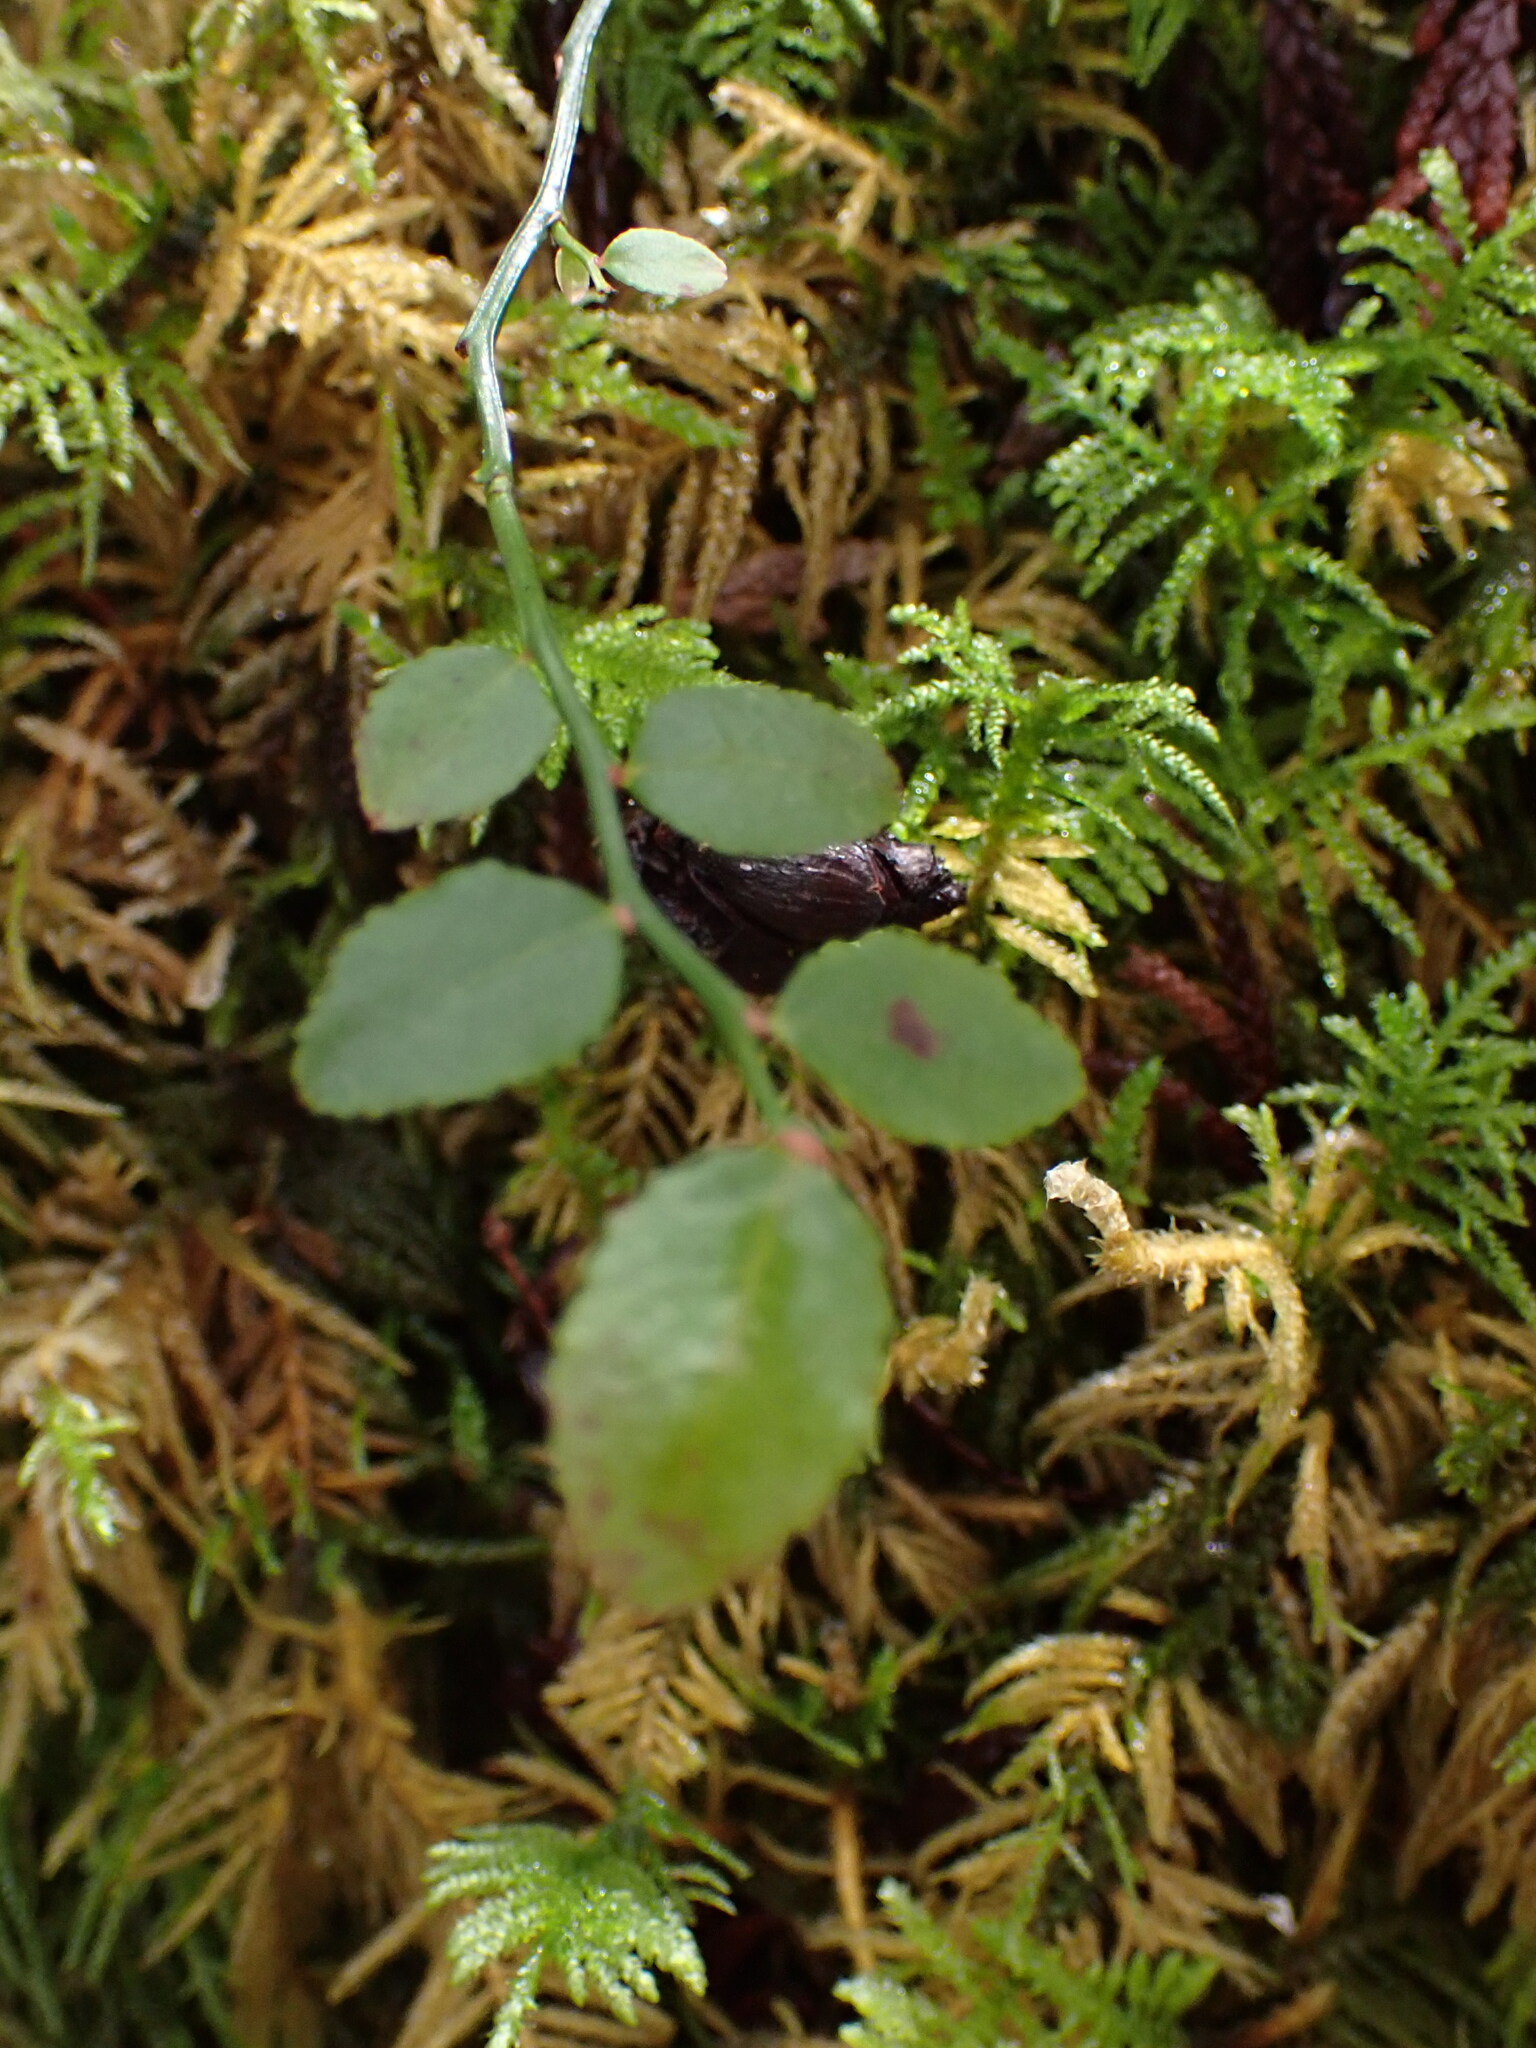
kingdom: Plantae
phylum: Tracheophyta
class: Magnoliopsida
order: Ericales
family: Ericaceae
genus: Vaccinium
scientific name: Vaccinium parvifolium
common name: Red-huckleberry
